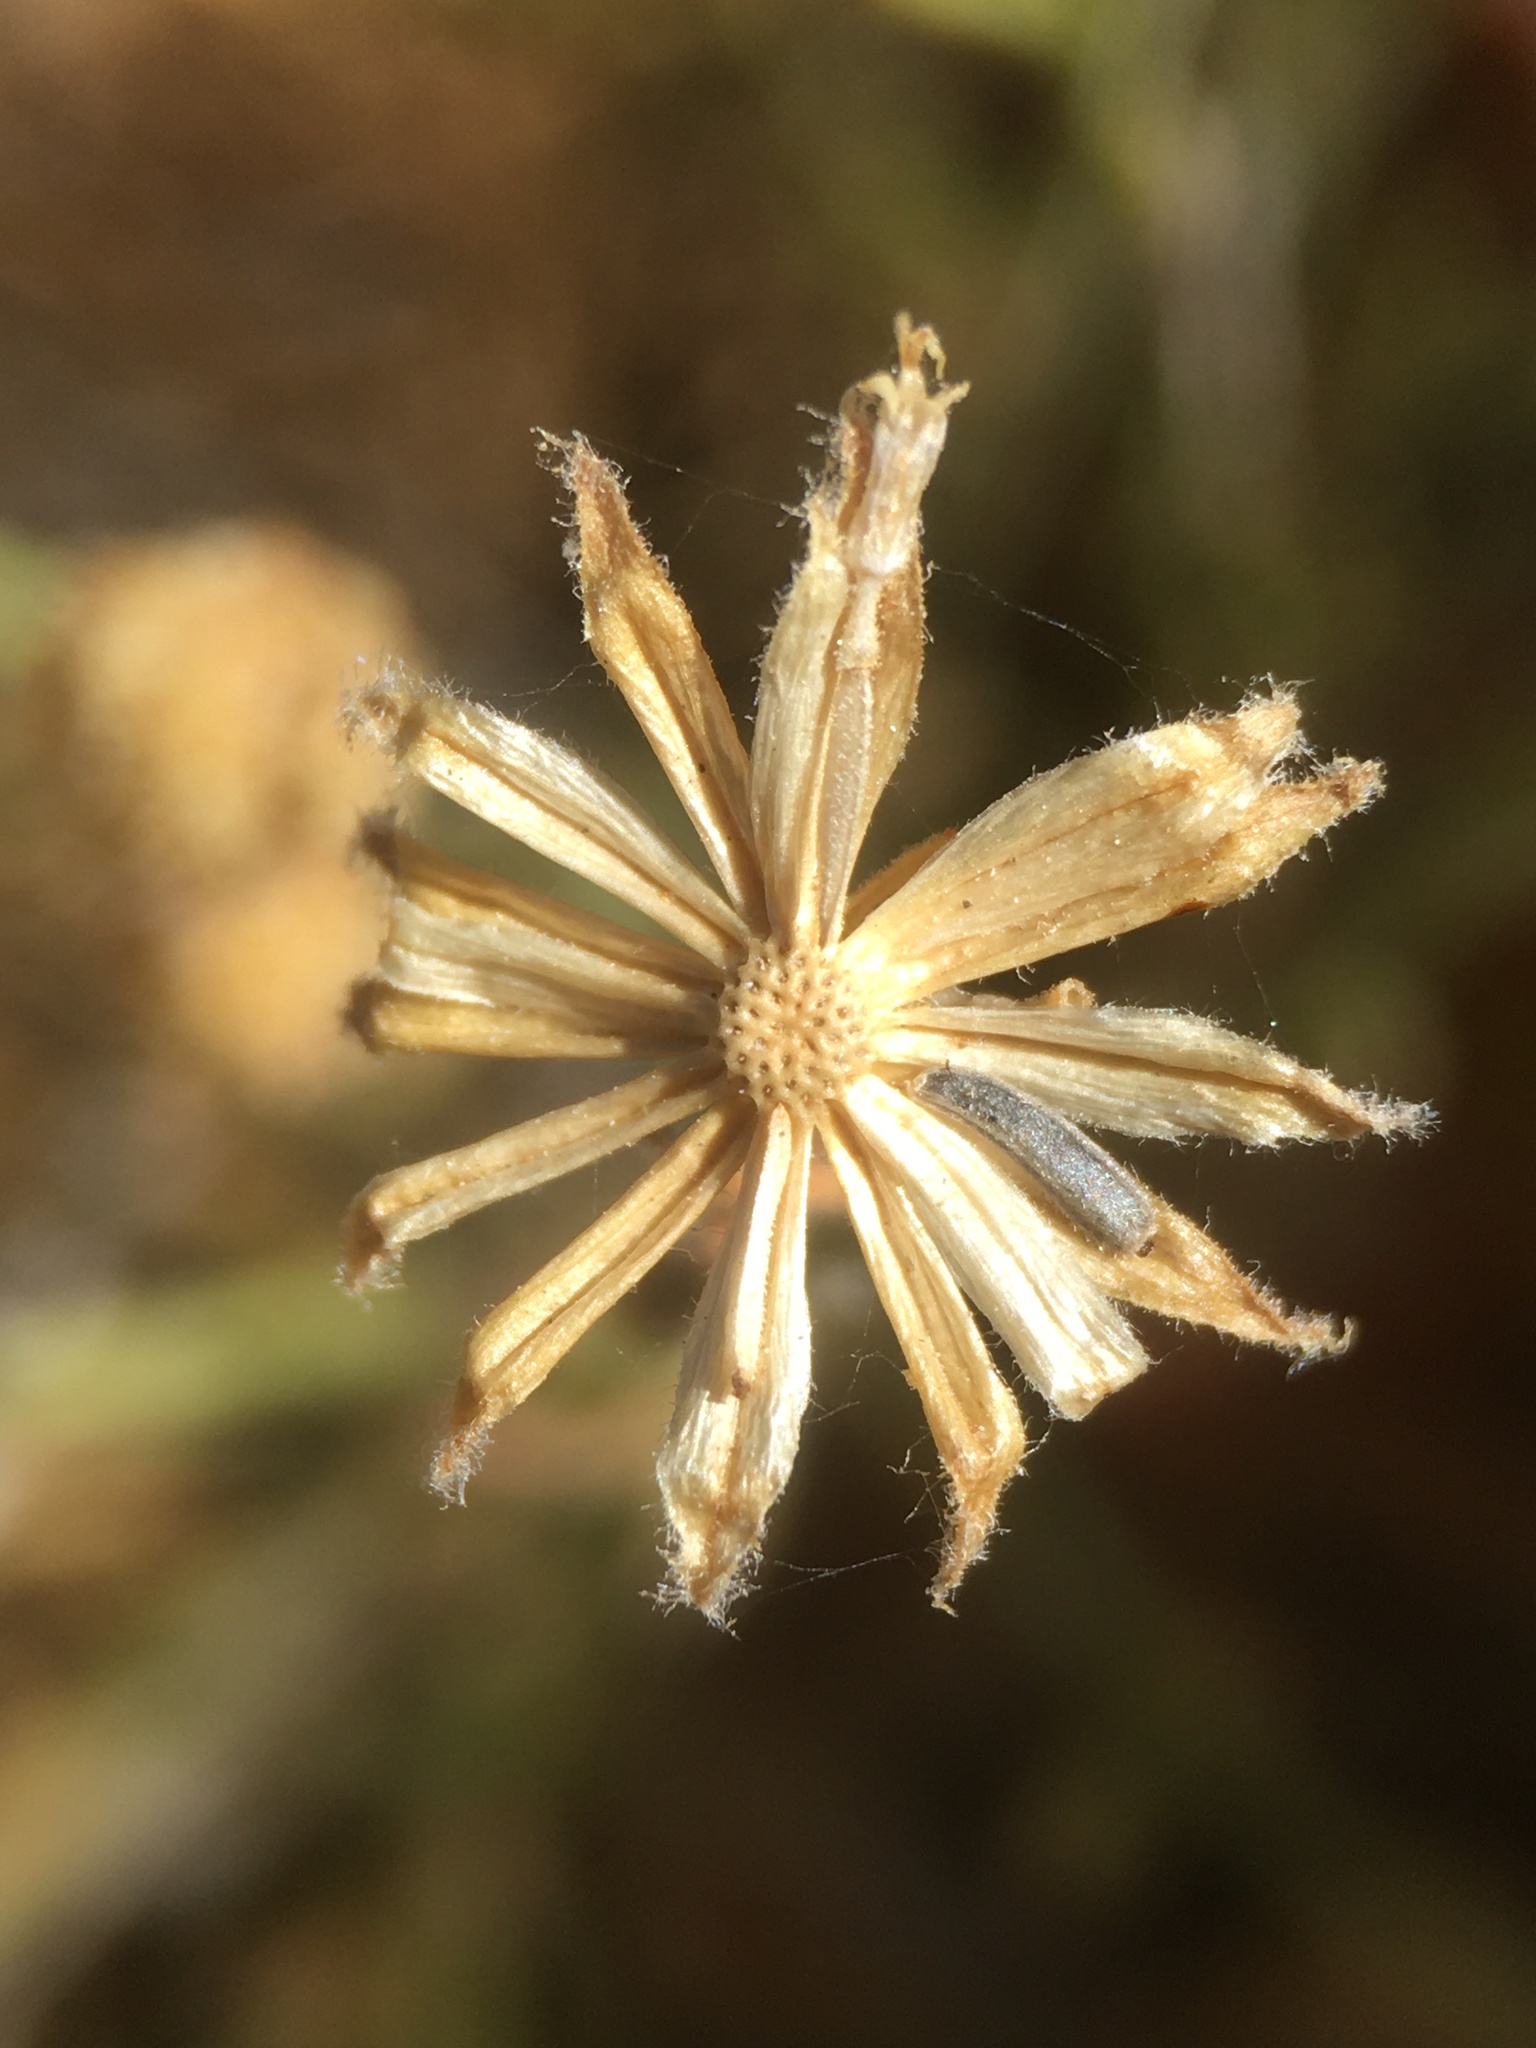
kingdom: Plantae
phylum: Tracheophyta
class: Magnoliopsida
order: Asterales
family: Asteraceae
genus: Laphamia
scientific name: Laphamia villosa
